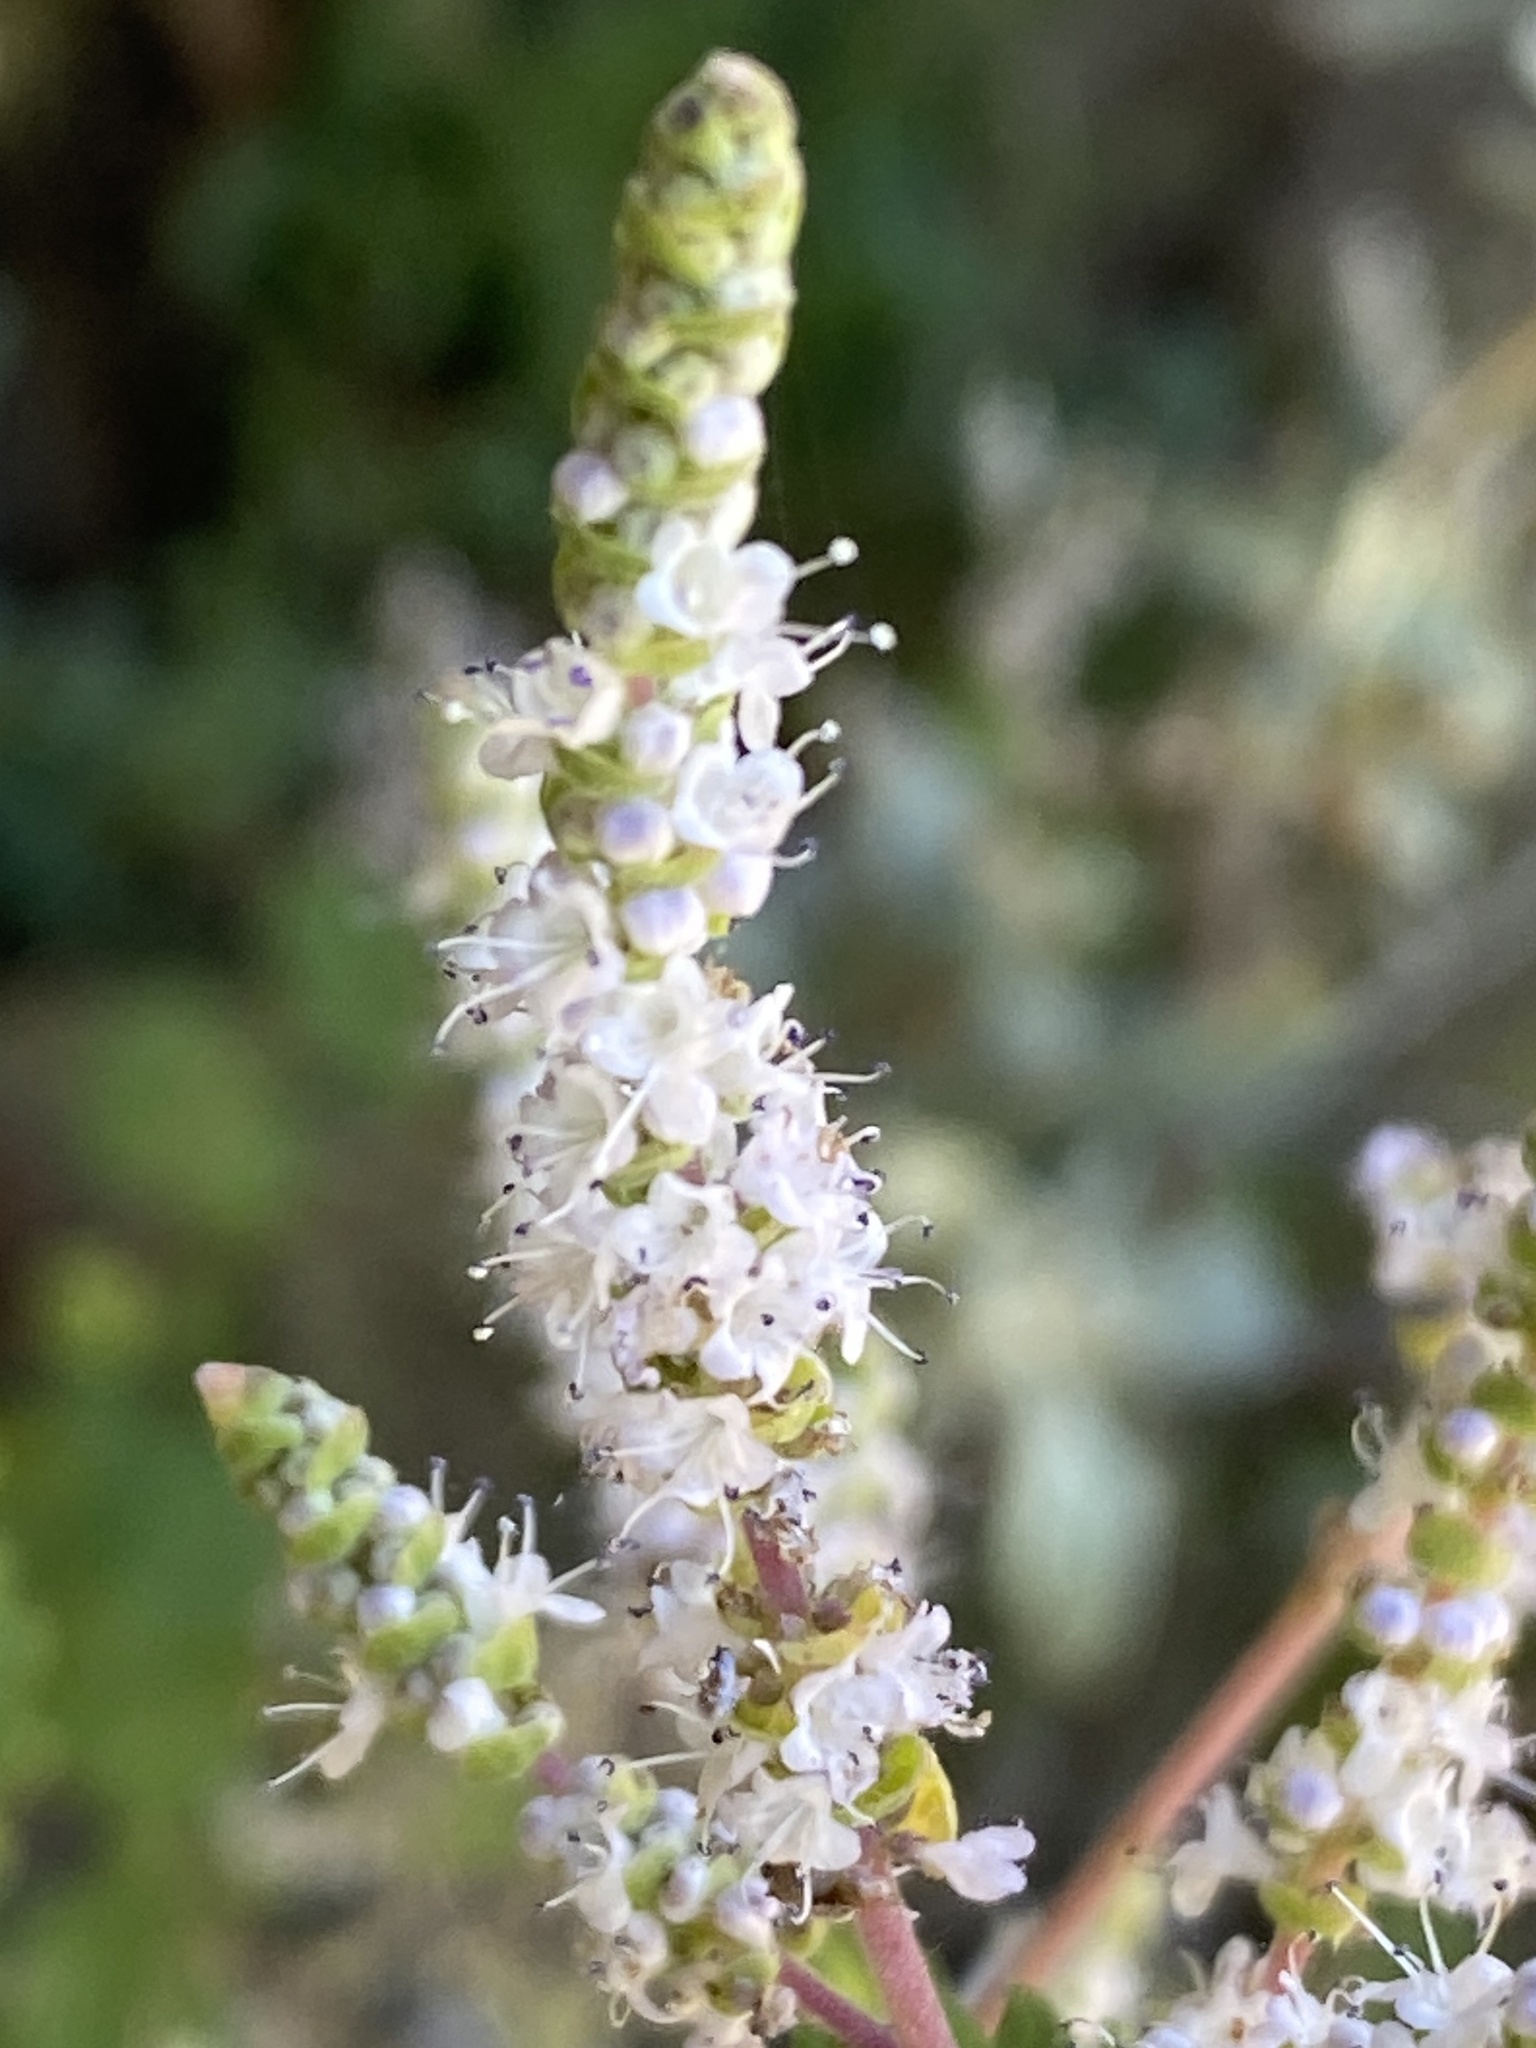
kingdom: Plantae
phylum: Tracheophyta
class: Magnoliopsida
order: Lamiales
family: Lamiaceae
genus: Tetradenia
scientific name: Tetradenia riparia
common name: Gingerbush
